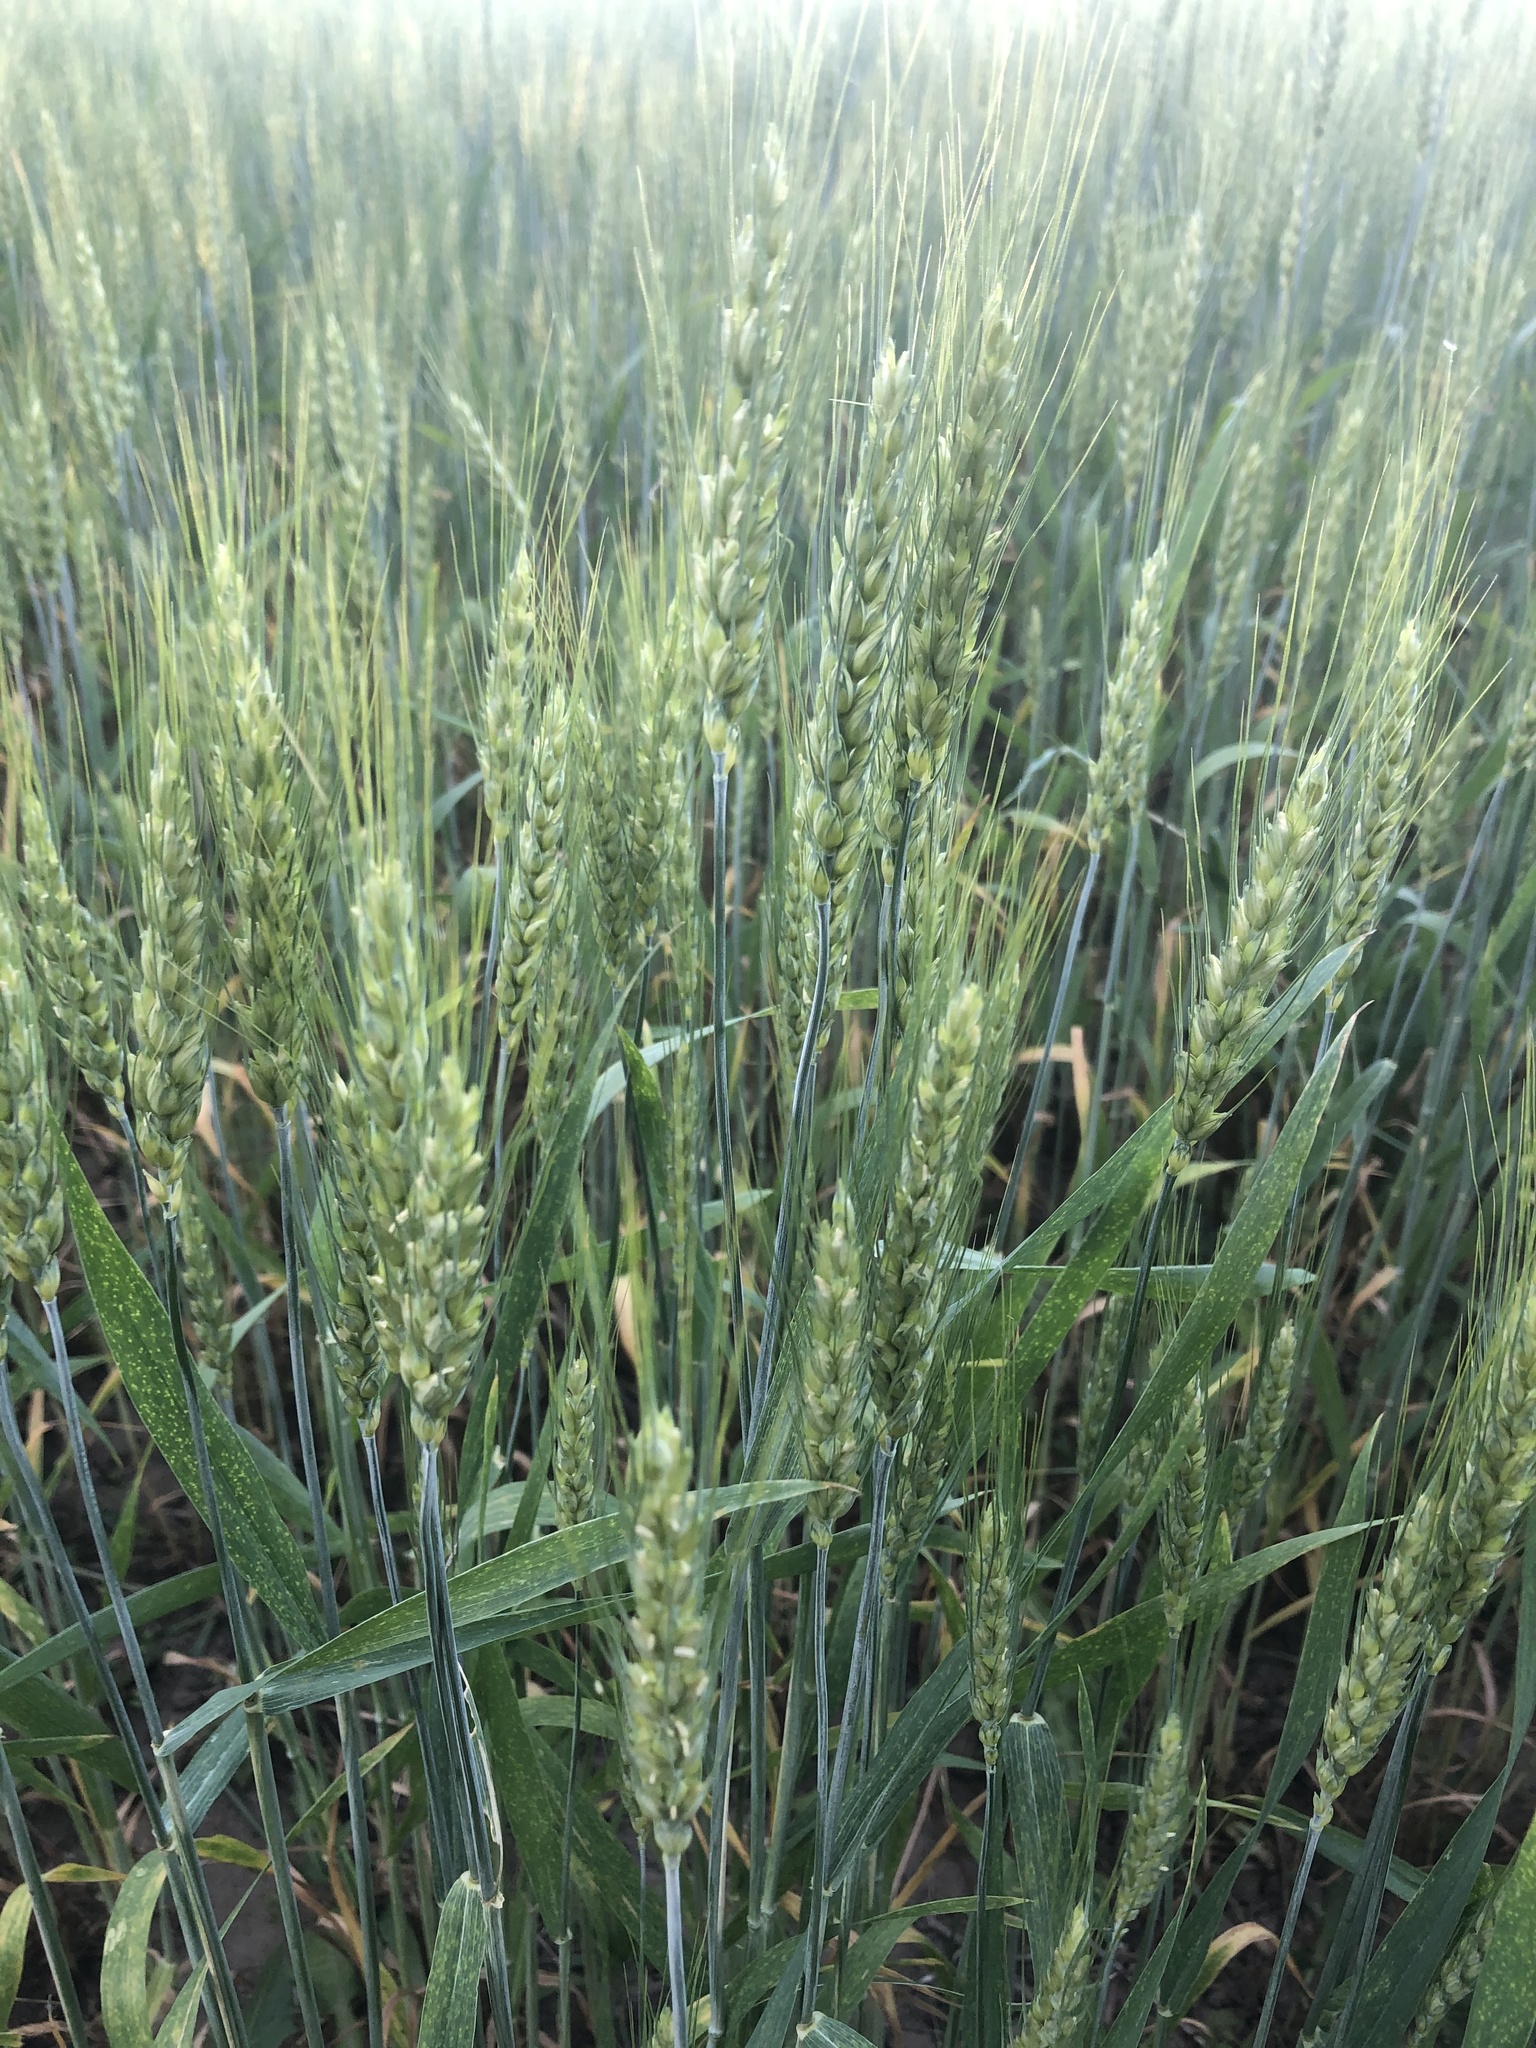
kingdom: Plantae
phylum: Tracheophyta
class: Liliopsida
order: Poales
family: Poaceae
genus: Triticum
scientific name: Triticum aestivum
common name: Common wheat
